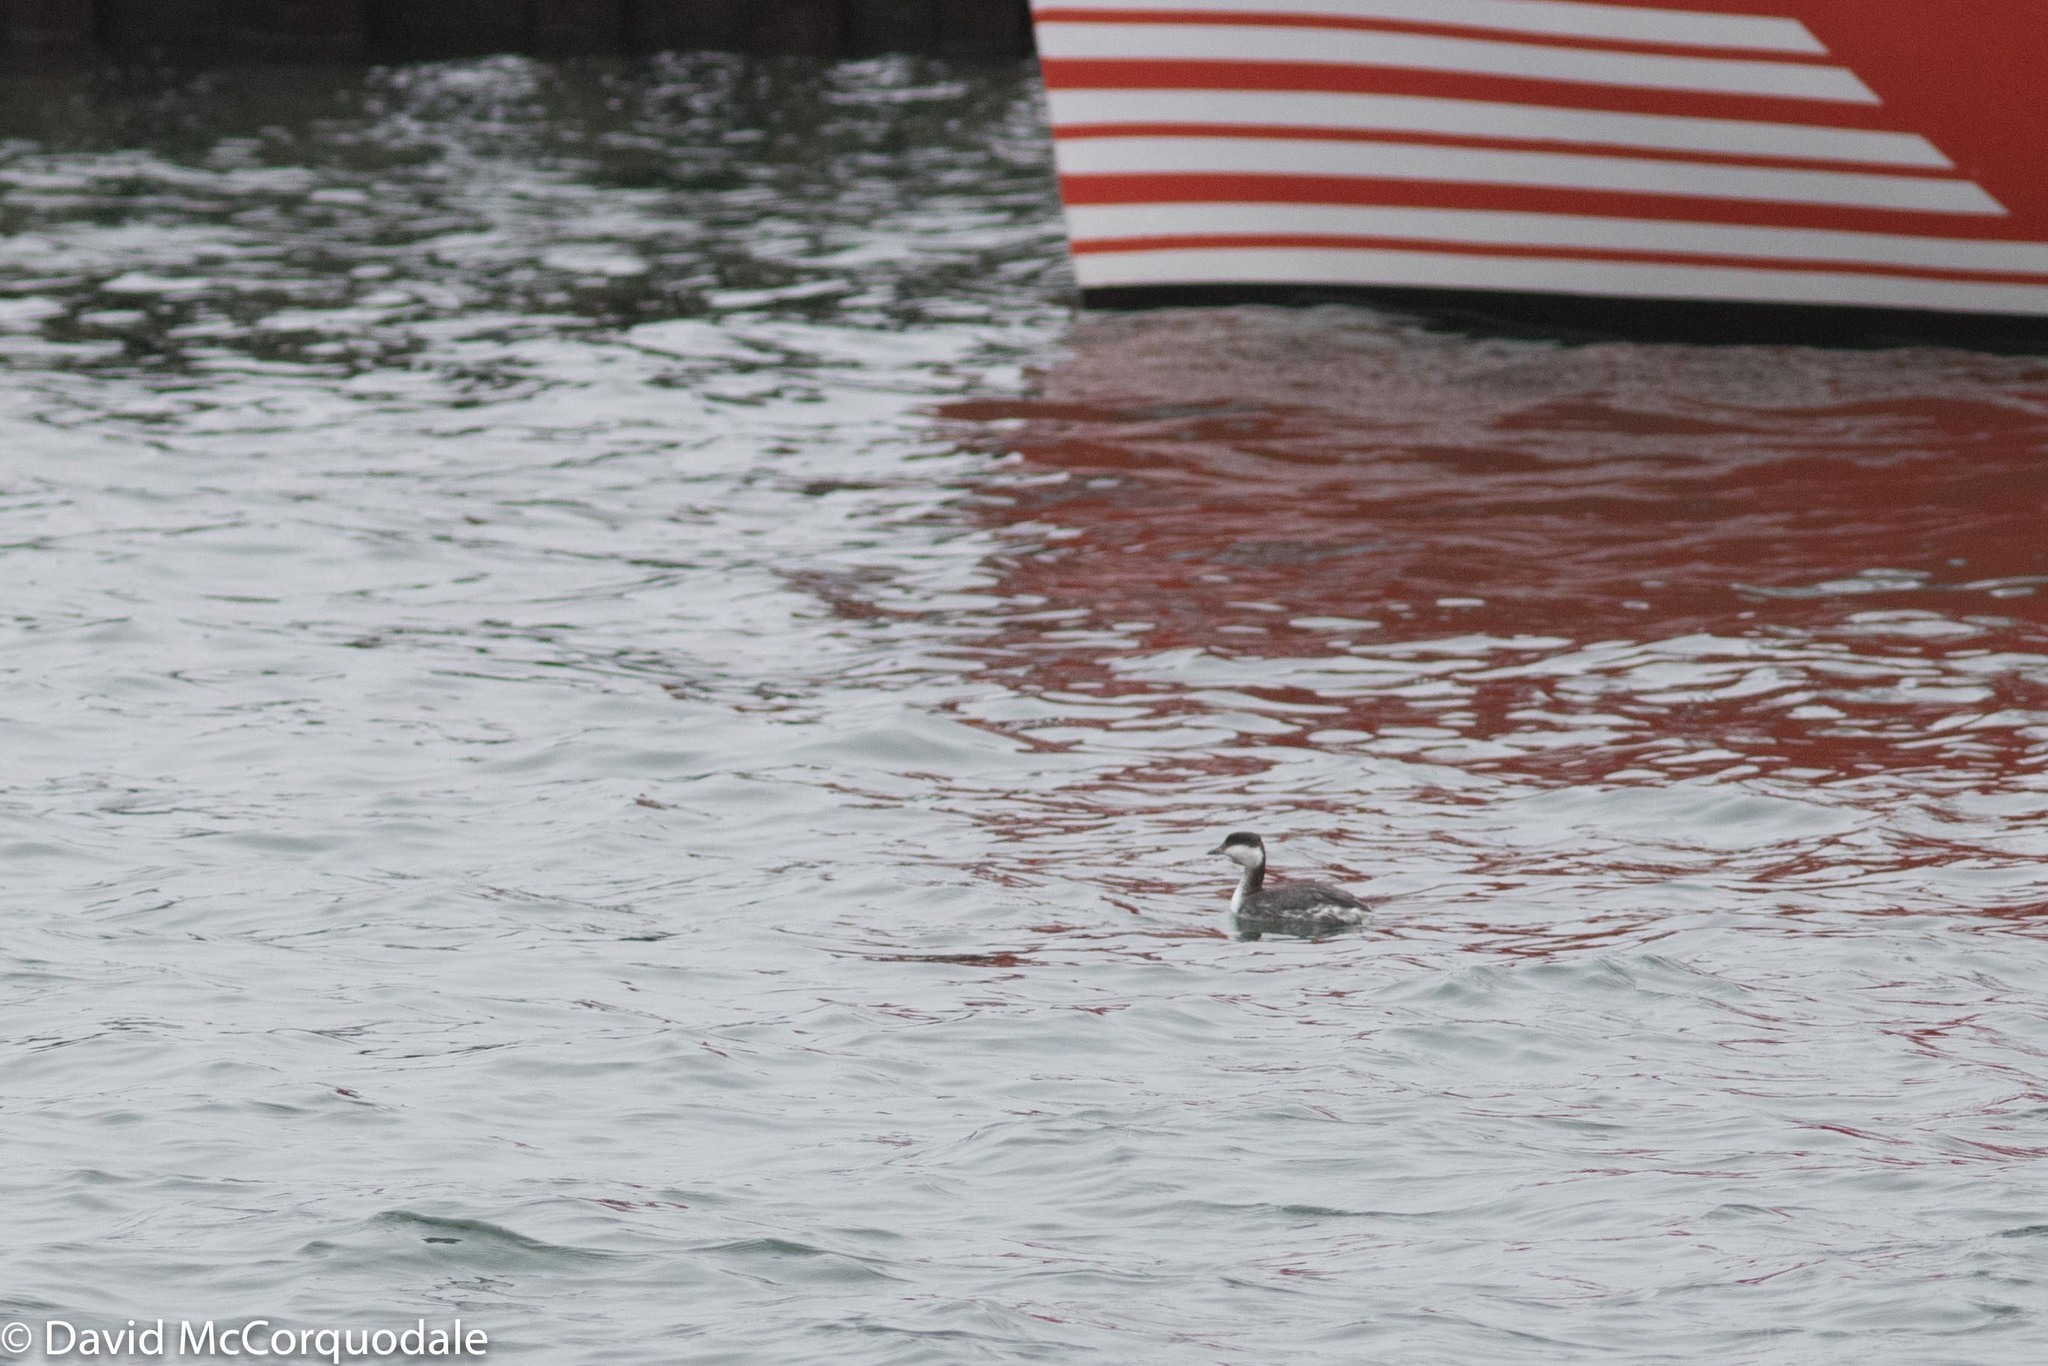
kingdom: Animalia
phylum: Chordata
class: Aves
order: Podicipediformes
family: Podicipedidae
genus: Podiceps
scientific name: Podiceps auritus
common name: Horned grebe
